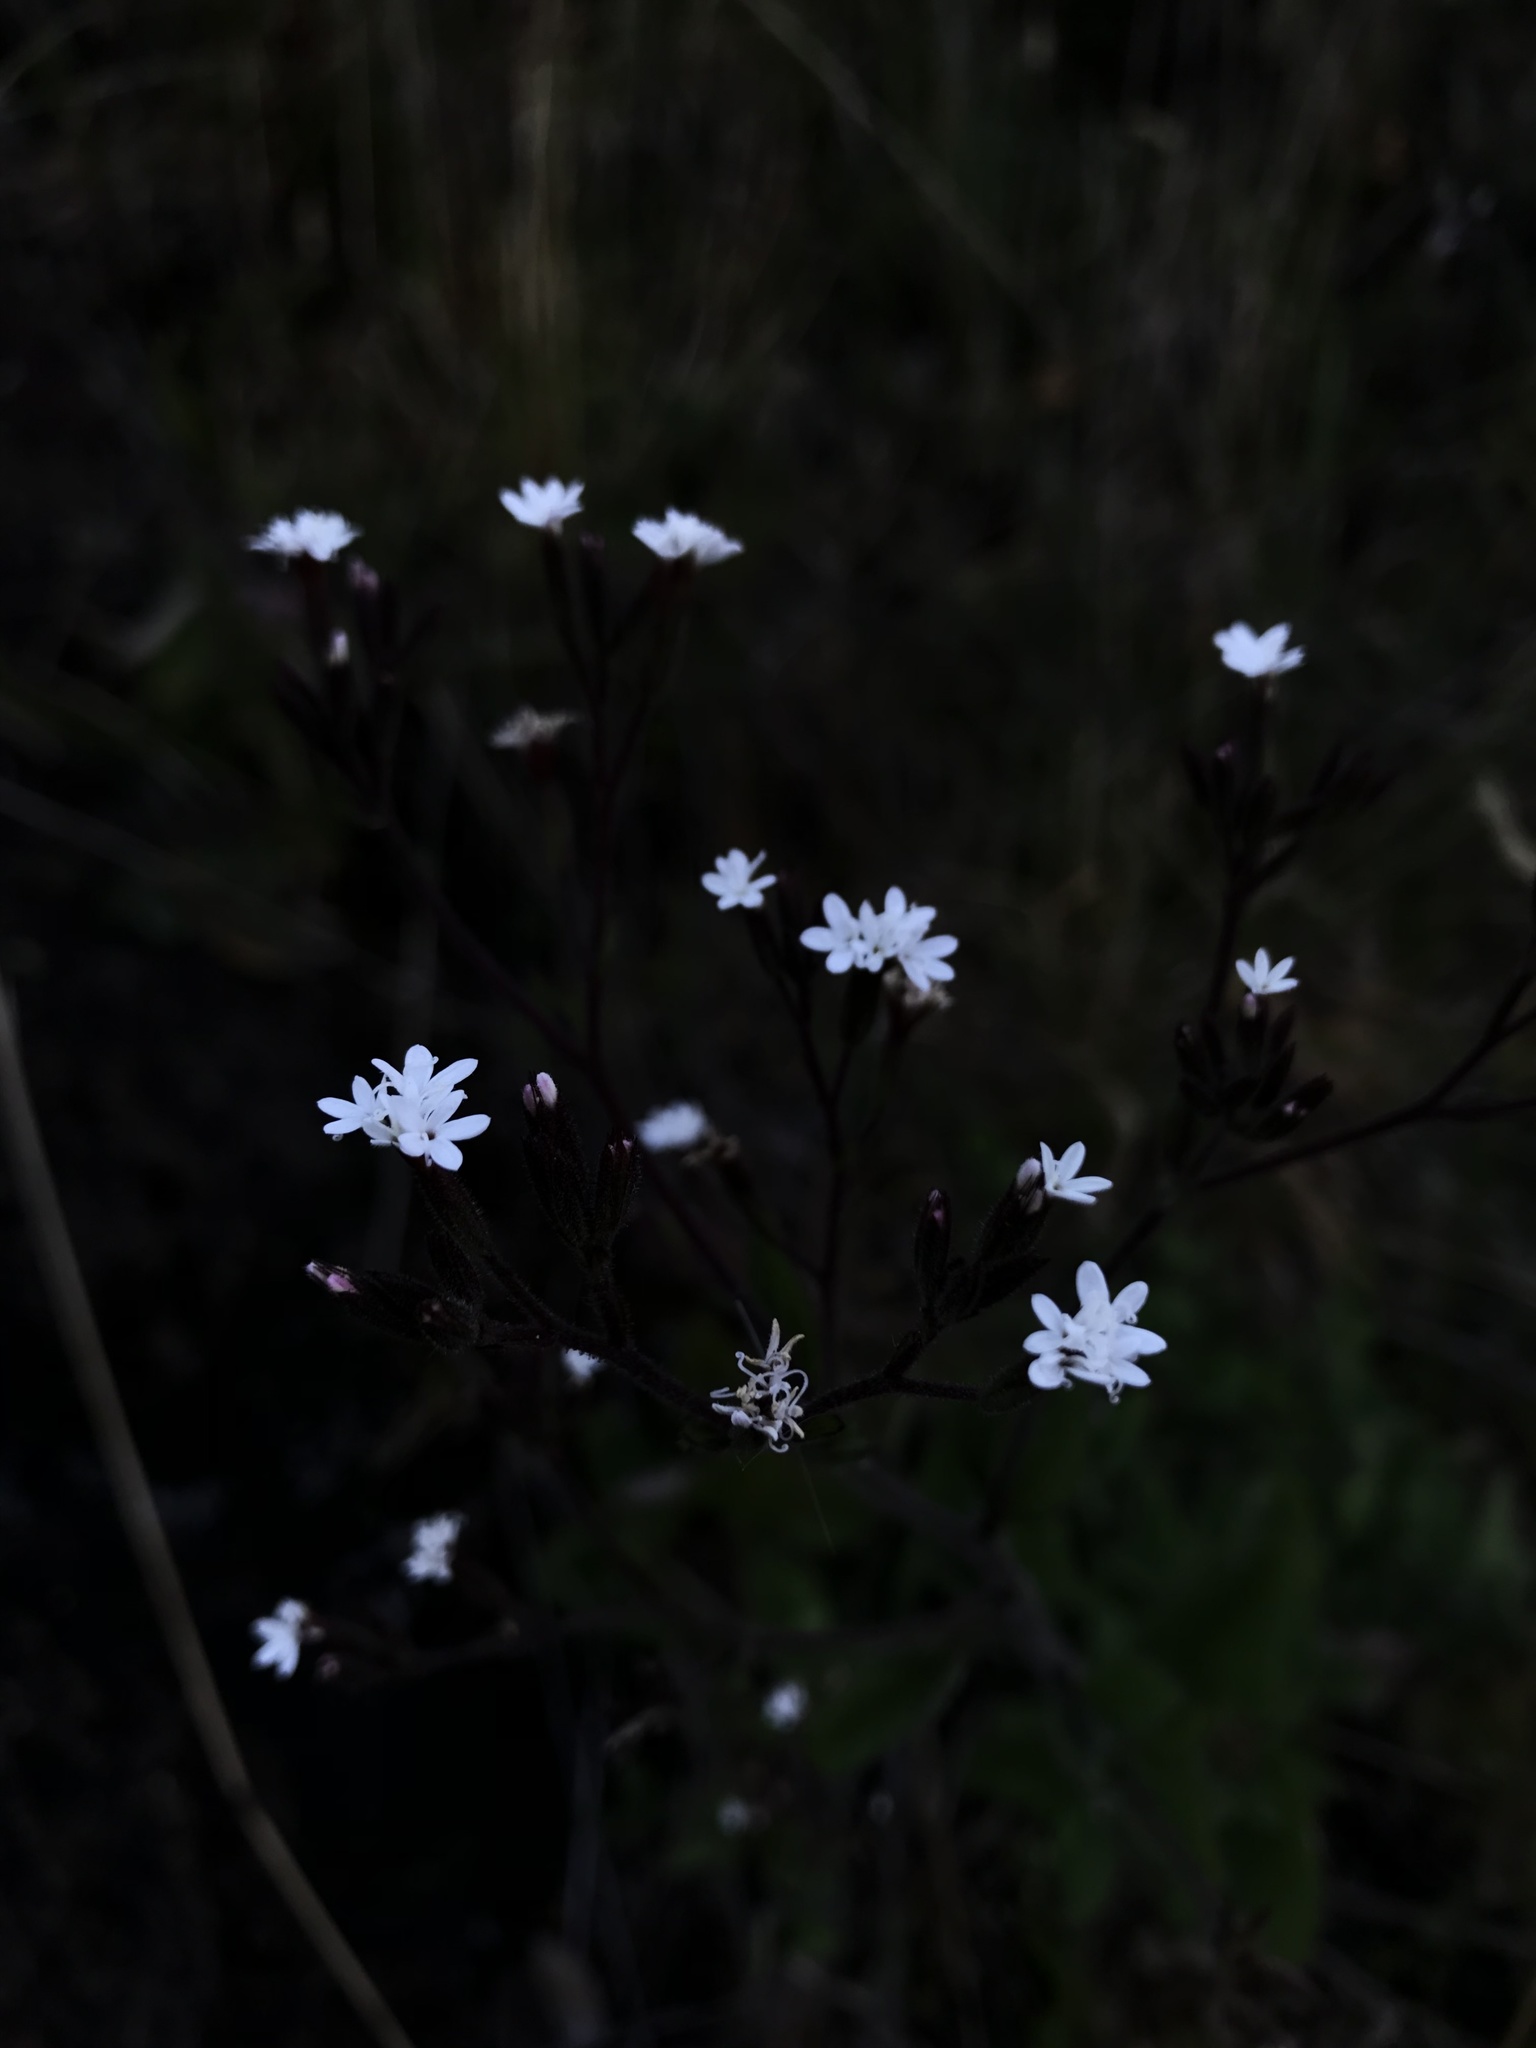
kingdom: Plantae
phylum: Tracheophyta
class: Magnoliopsida
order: Asterales
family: Asteraceae
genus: Stevia
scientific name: Stevia elatior
